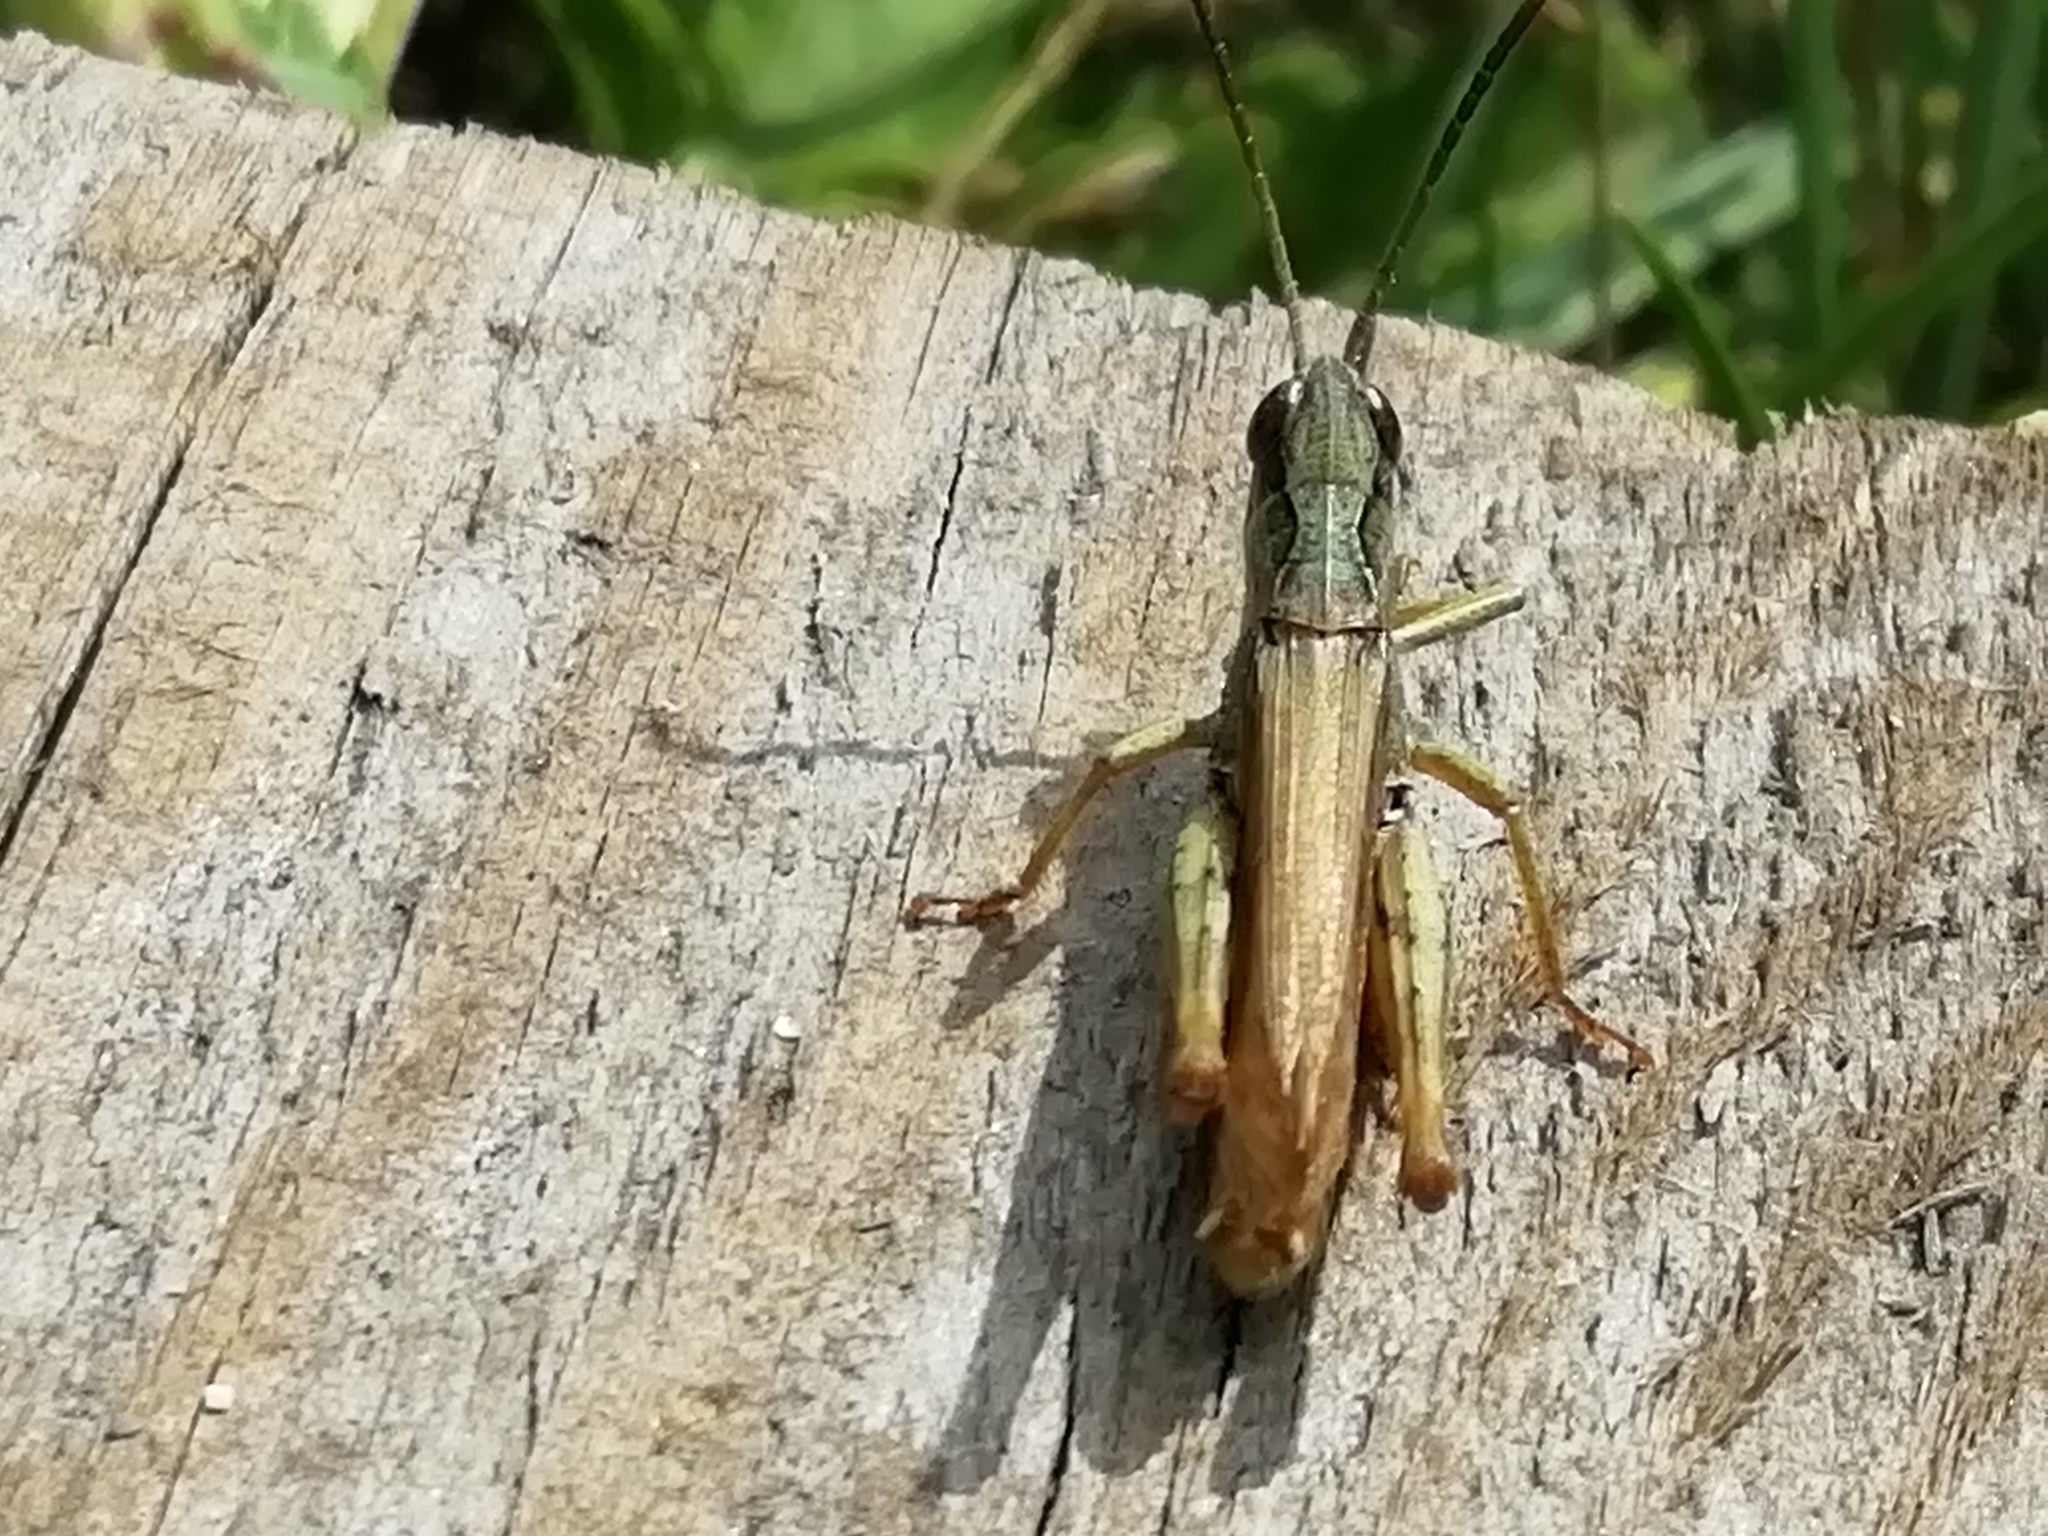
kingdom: Animalia
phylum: Arthropoda
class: Insecta
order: Orthoptera
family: Acrididae
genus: Chorthippus
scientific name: Chorthippus apricarius
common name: Upland field grasshopper
